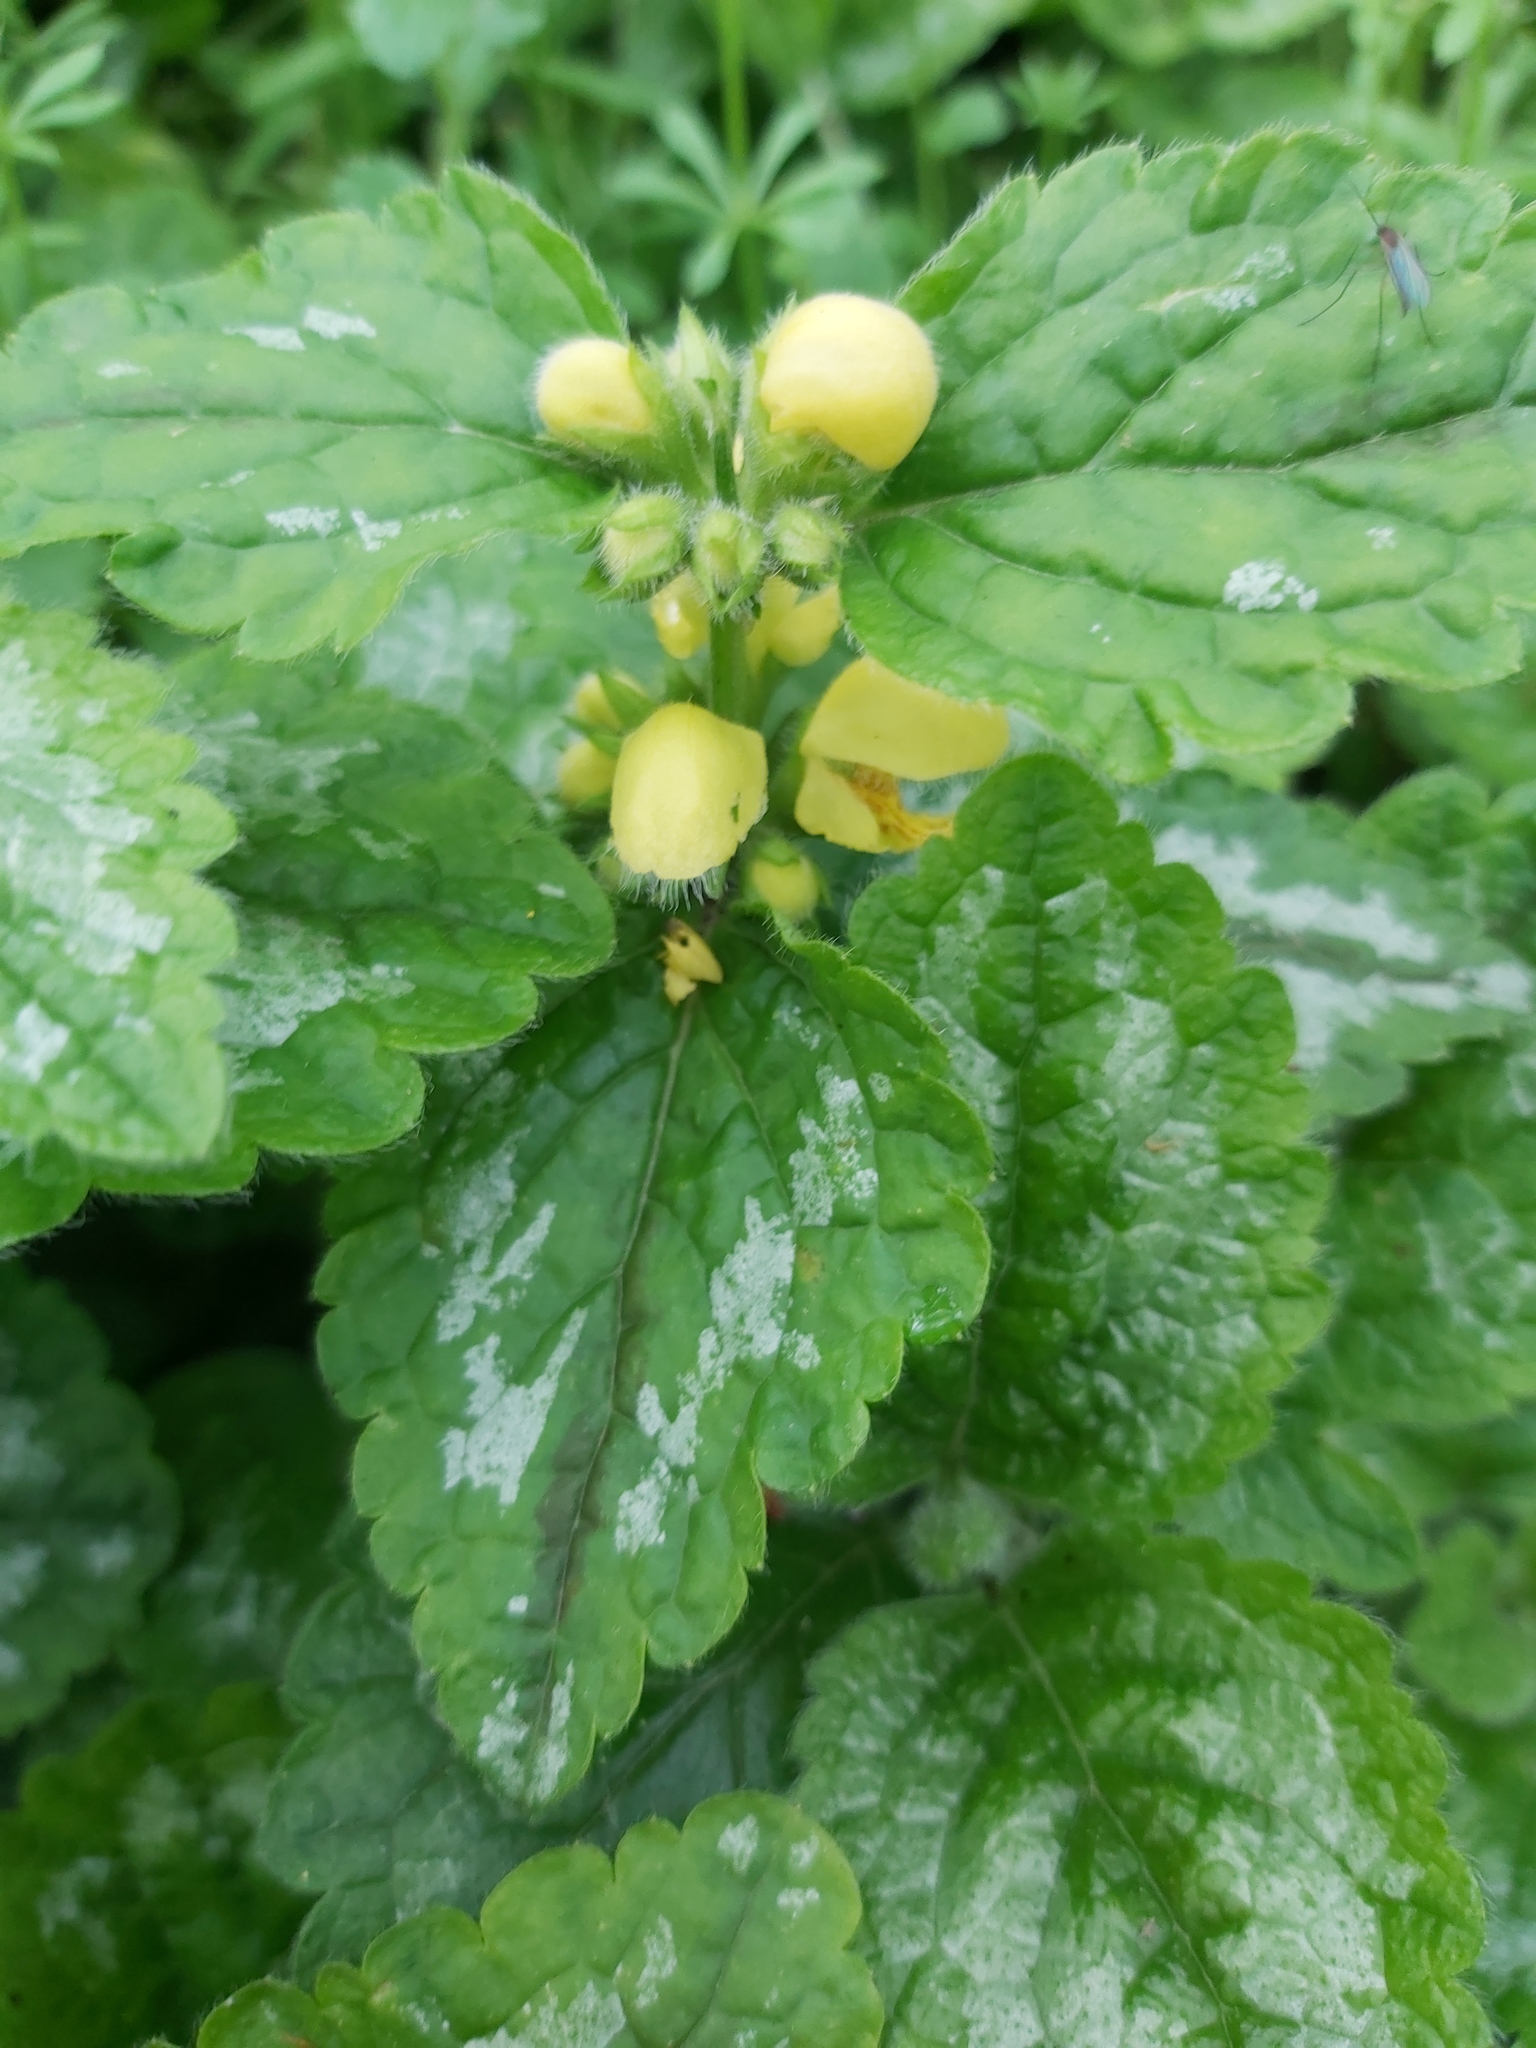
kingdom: Plantae
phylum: Tracheophyta
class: Magnoliopsida
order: Lamiales
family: Lamiaceae
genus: Lamium
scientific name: Lamium galeobdolon
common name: Yellow archangel
